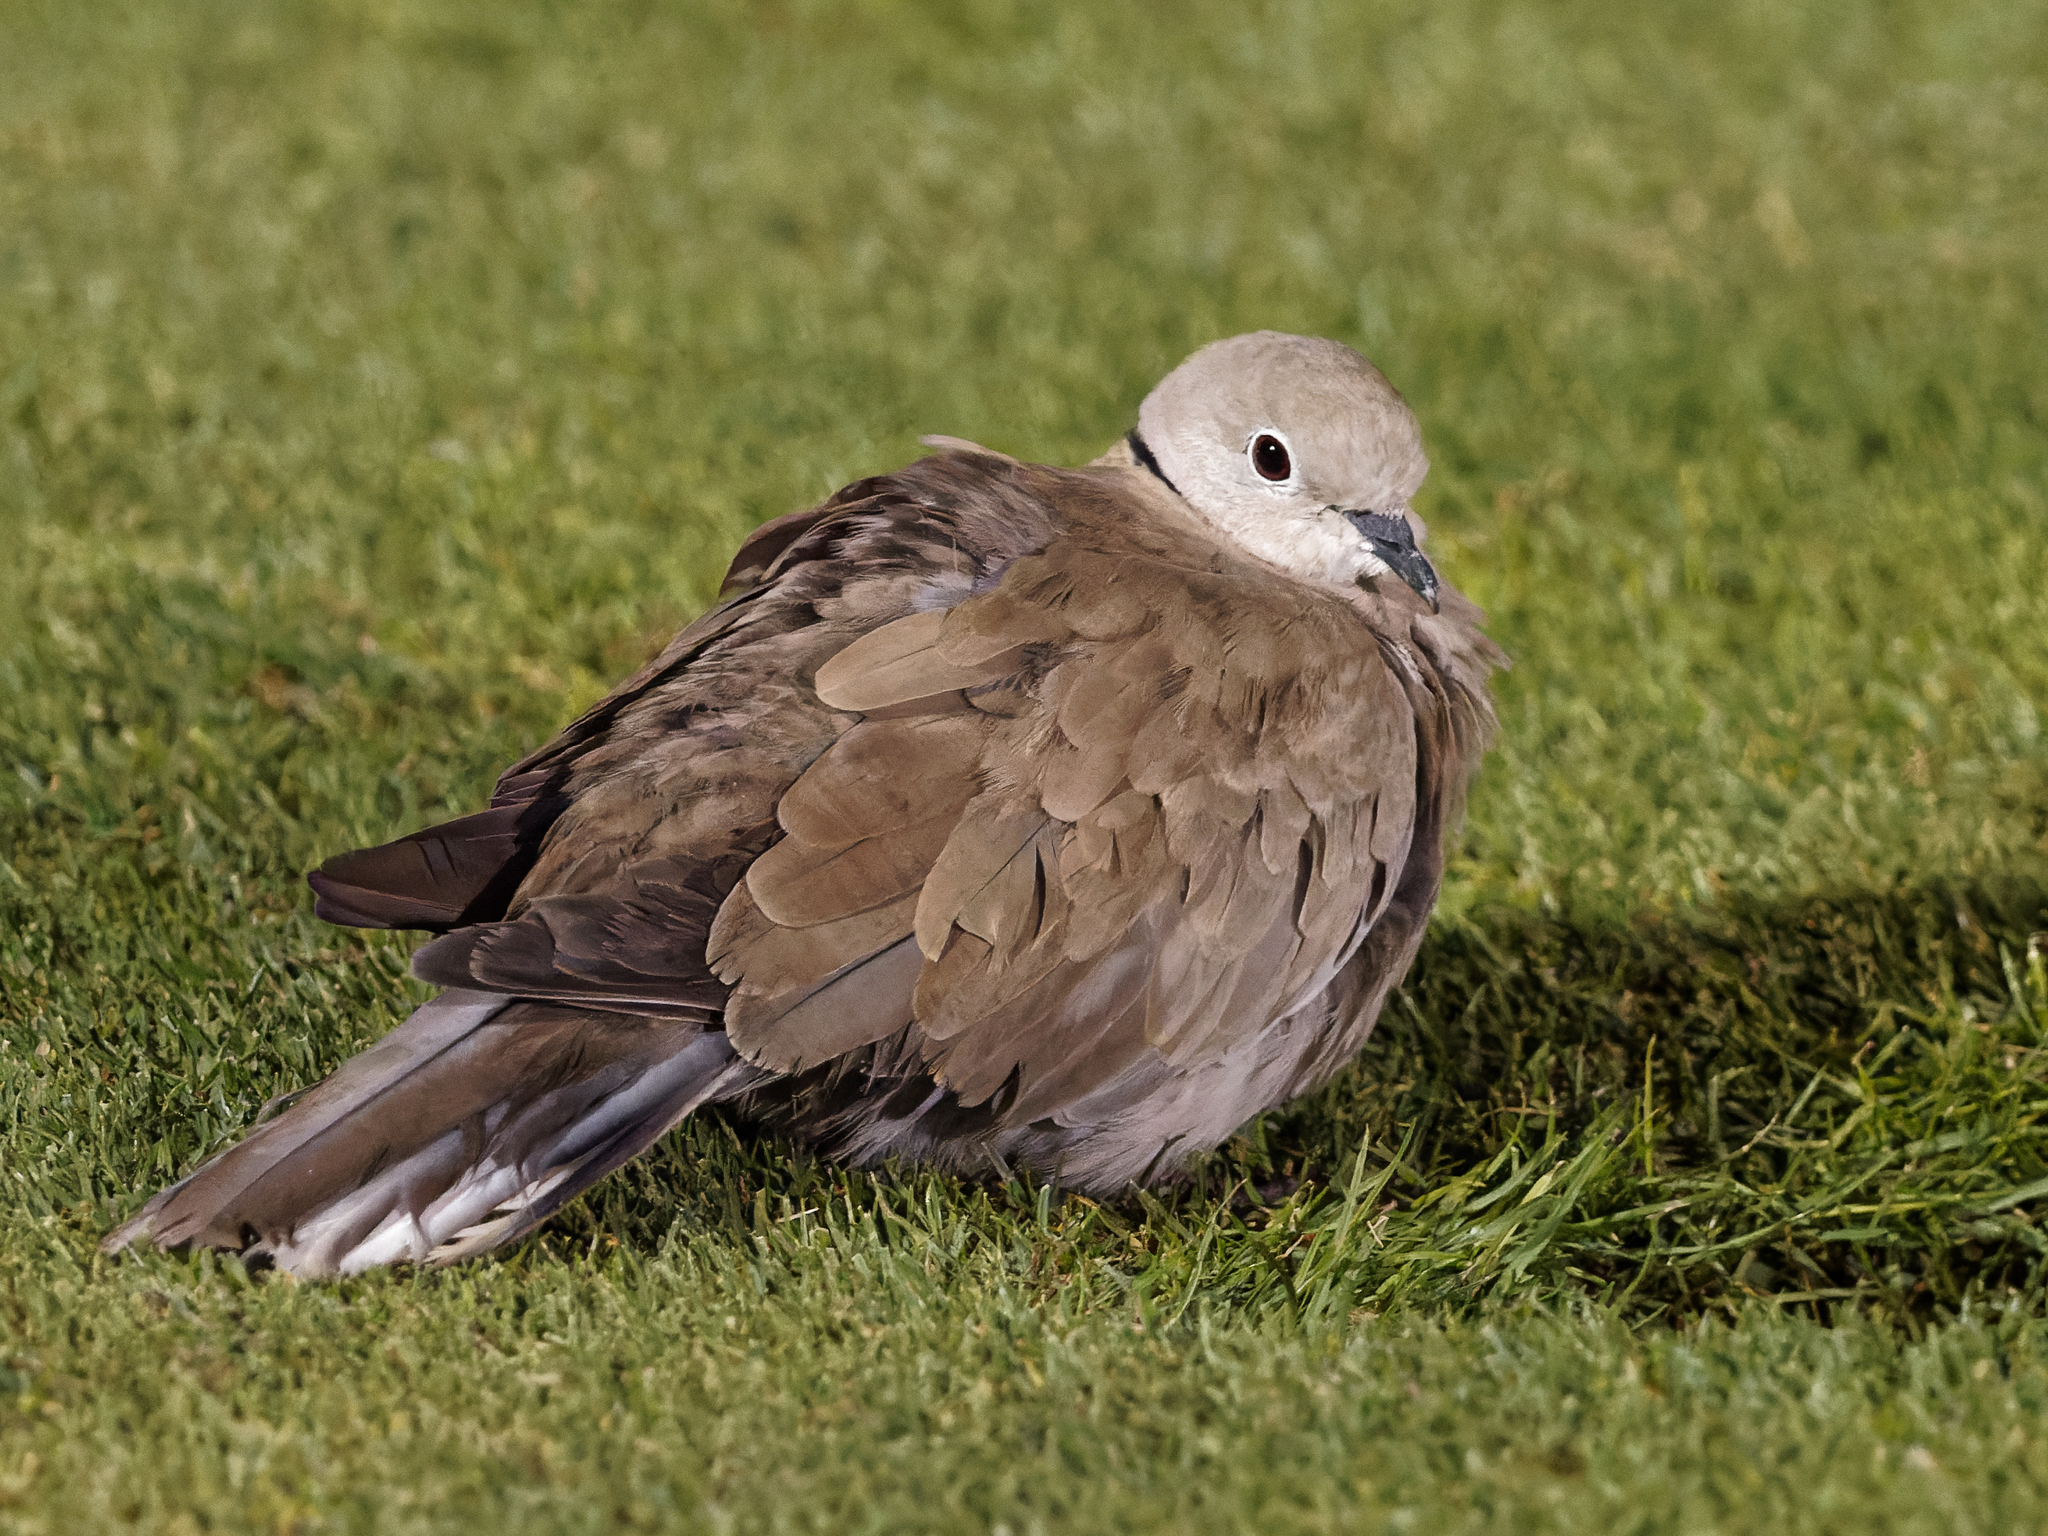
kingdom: Animalia
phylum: Chordata
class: Aves
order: Columbiformes
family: Columbidae
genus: Streptopelia
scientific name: Streptopelia decaocto
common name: Eurasian collared dove
